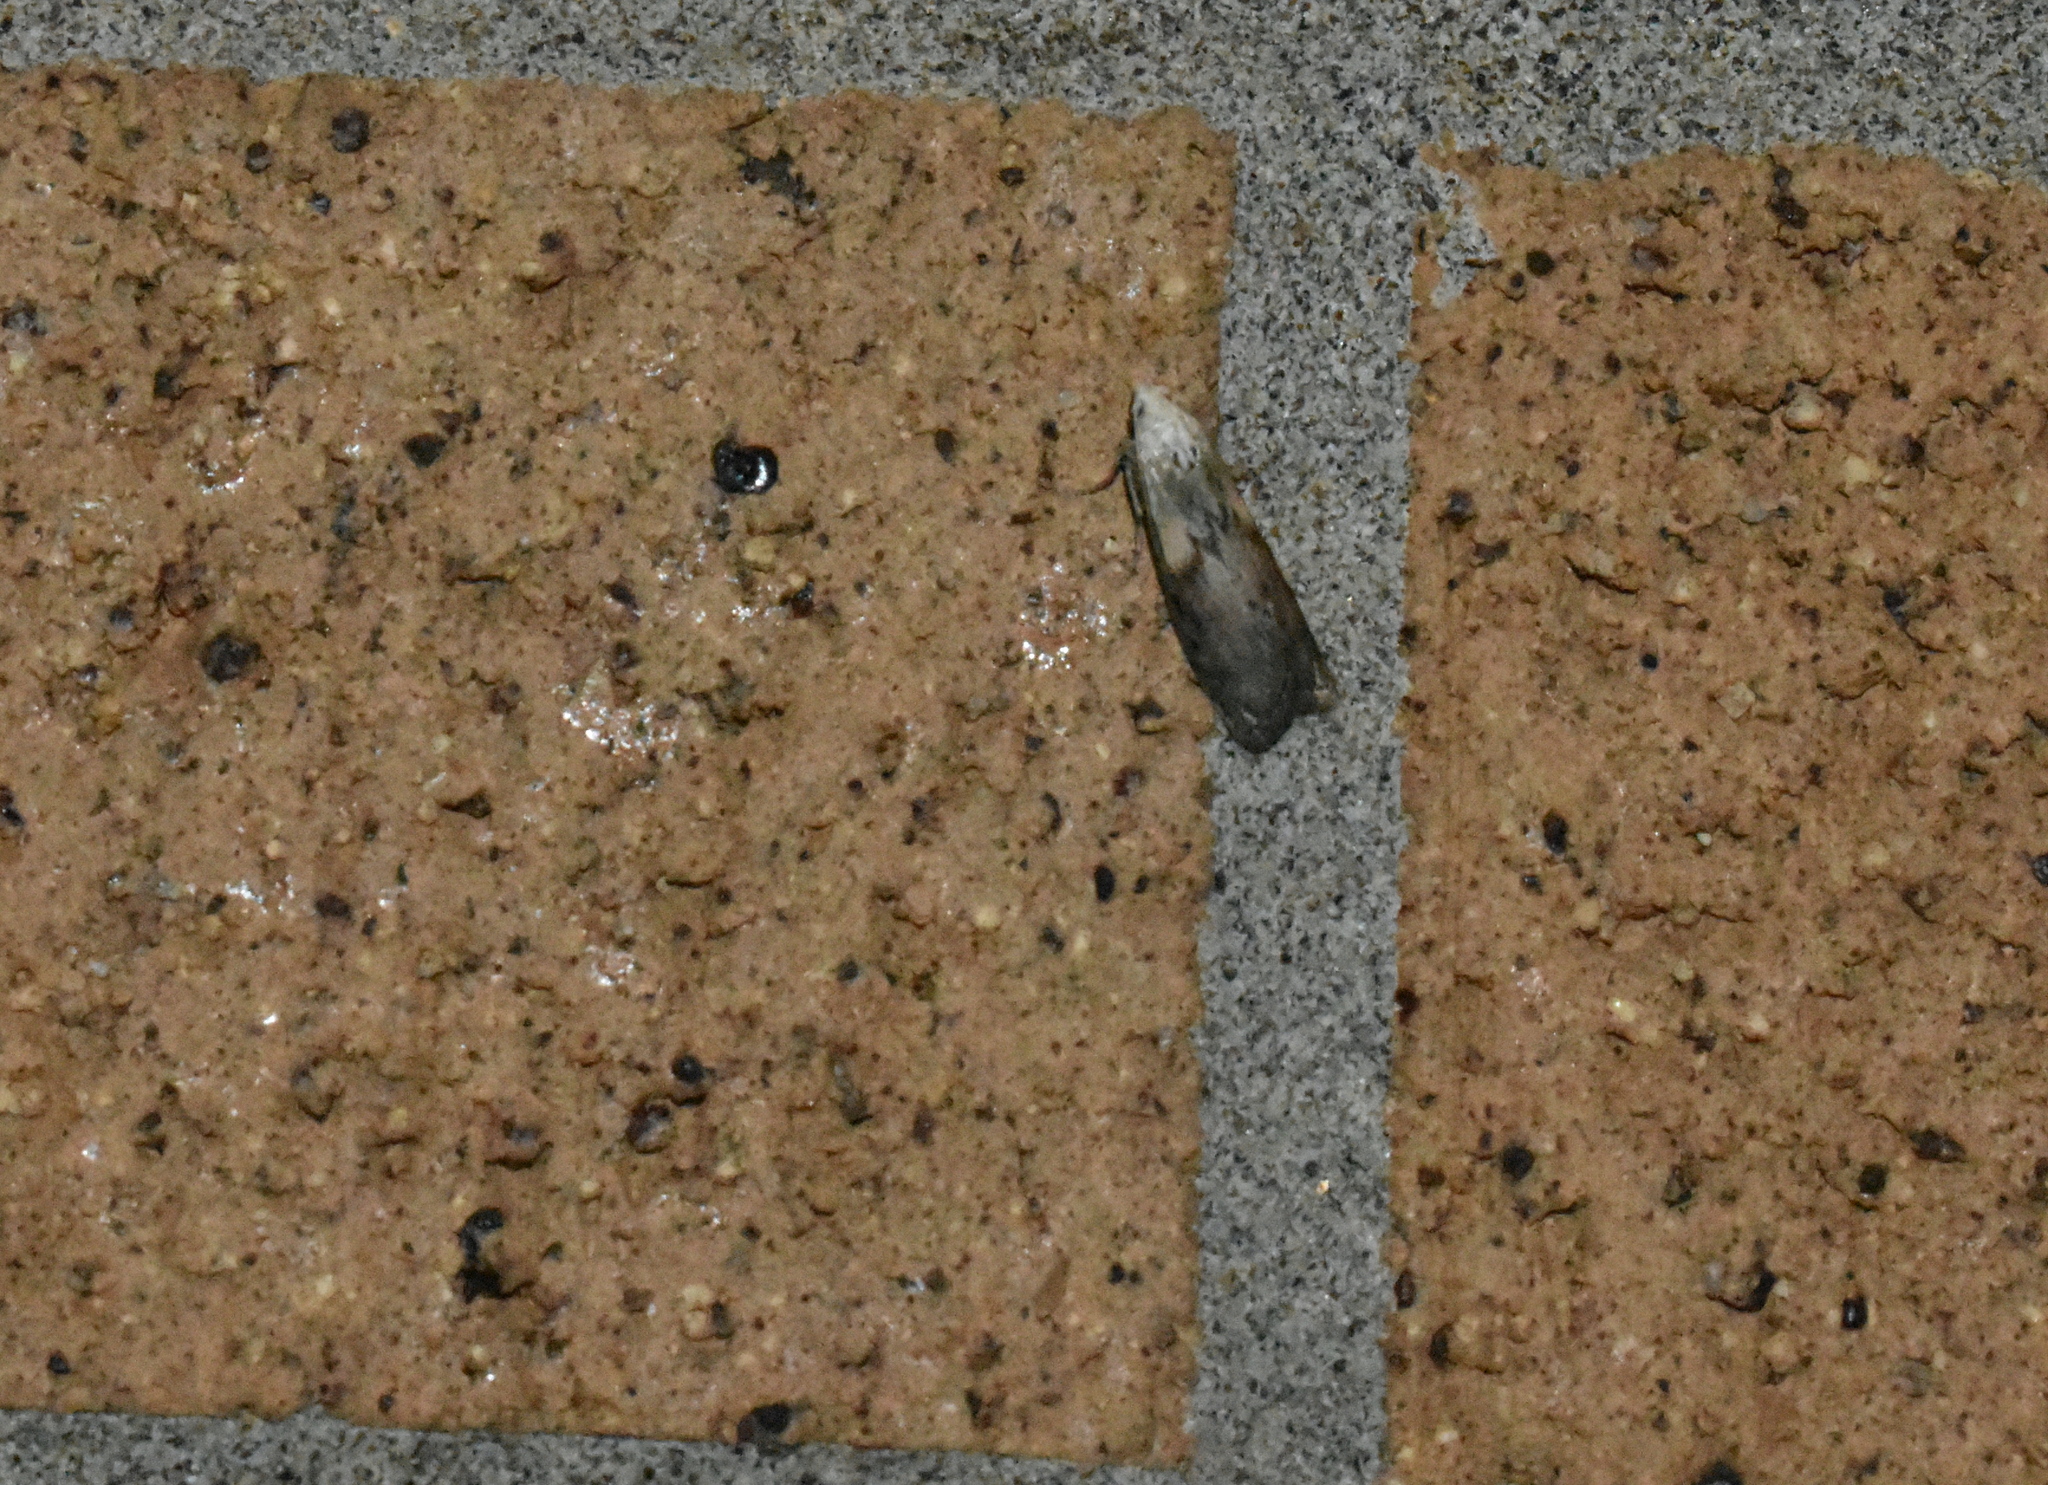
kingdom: Animalia
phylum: Arthropoda
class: Insecta
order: Lepidoptera
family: Pyralidae
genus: Aphomia
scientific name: Aphomia sociella
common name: Bee moth
